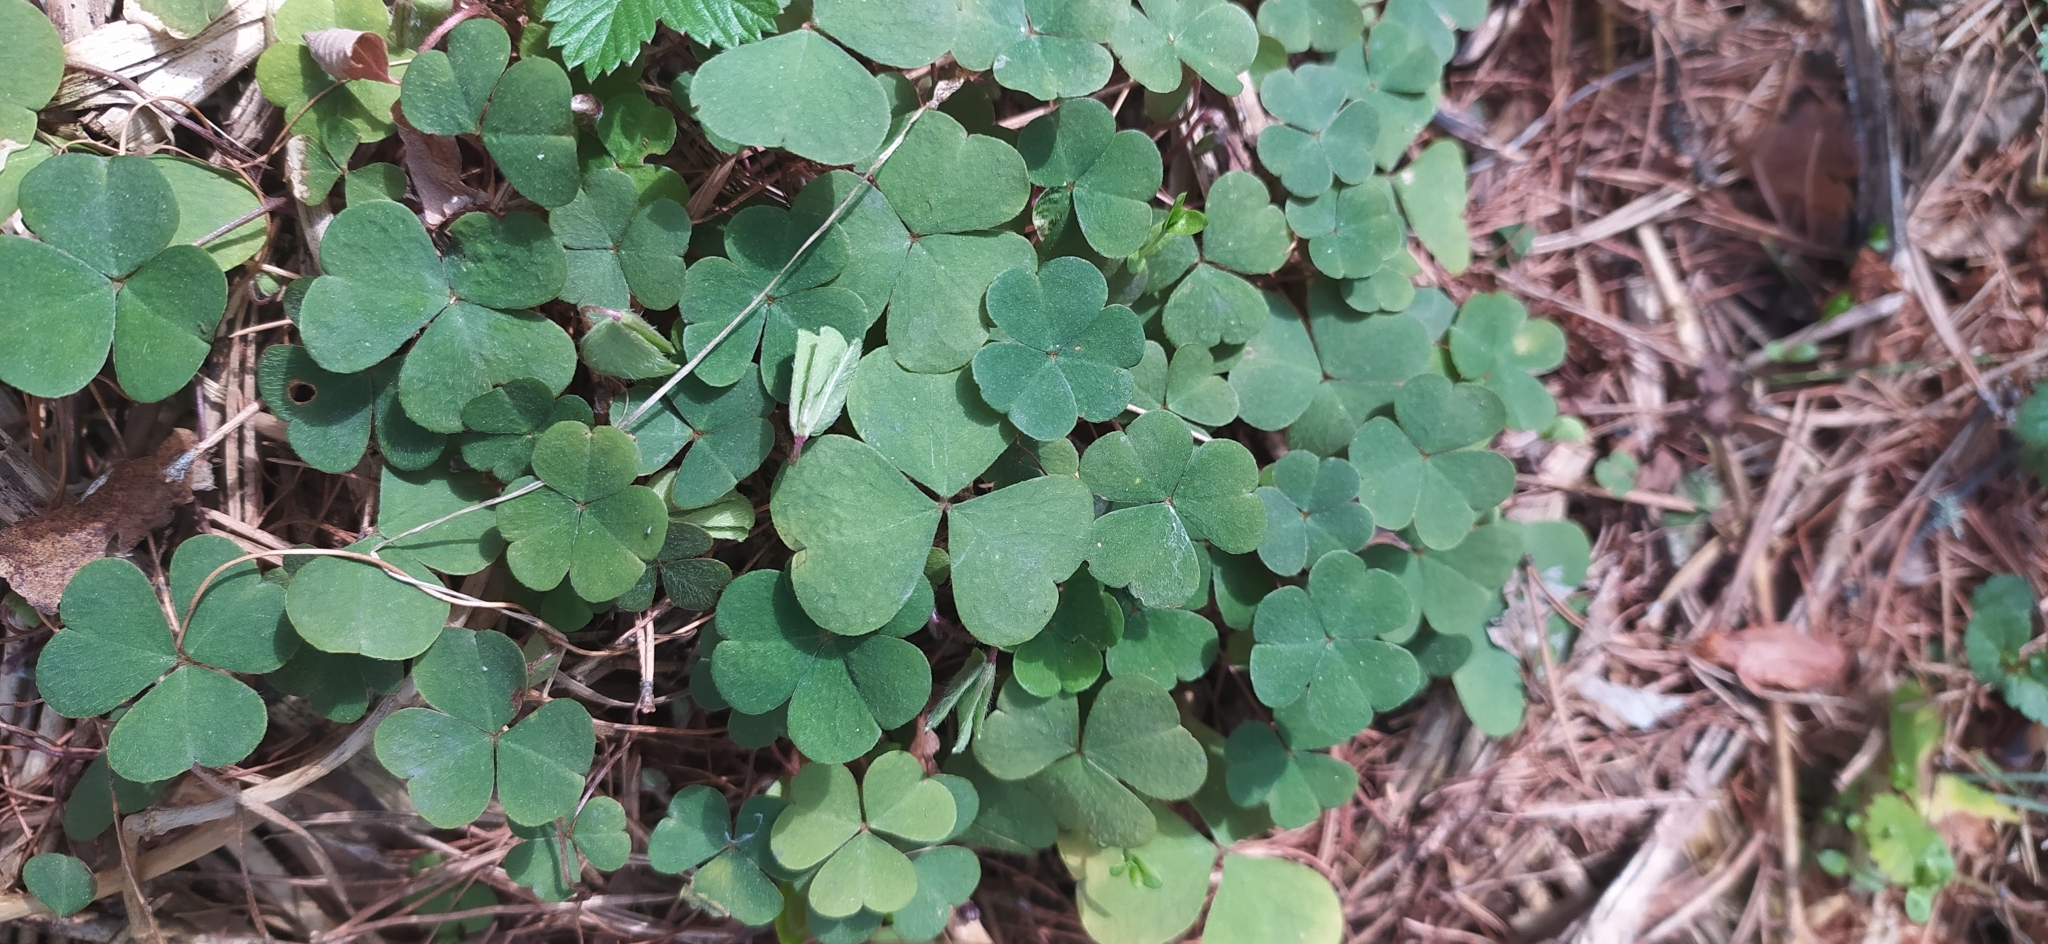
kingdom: Plantae
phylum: Tracheophyta
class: Magnoliopsida
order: Oxalidales
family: Oxalidaceae
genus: Oxalis
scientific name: Oxalis acetosella
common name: Wood-sorrel
